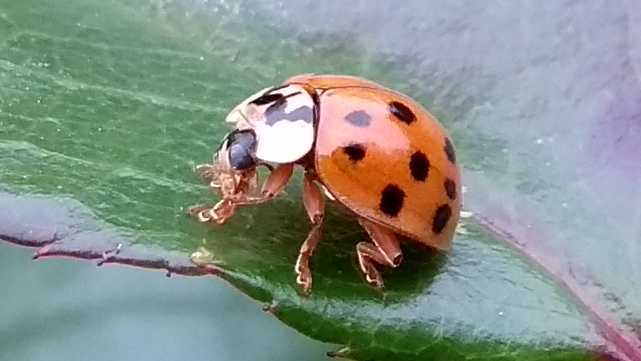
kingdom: Animalia
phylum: Arthropoda
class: Insecta
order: Coleoptera
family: Coccinellidae
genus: Harmonia
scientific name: Harmonia axyridis
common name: Harlequin ladybird
